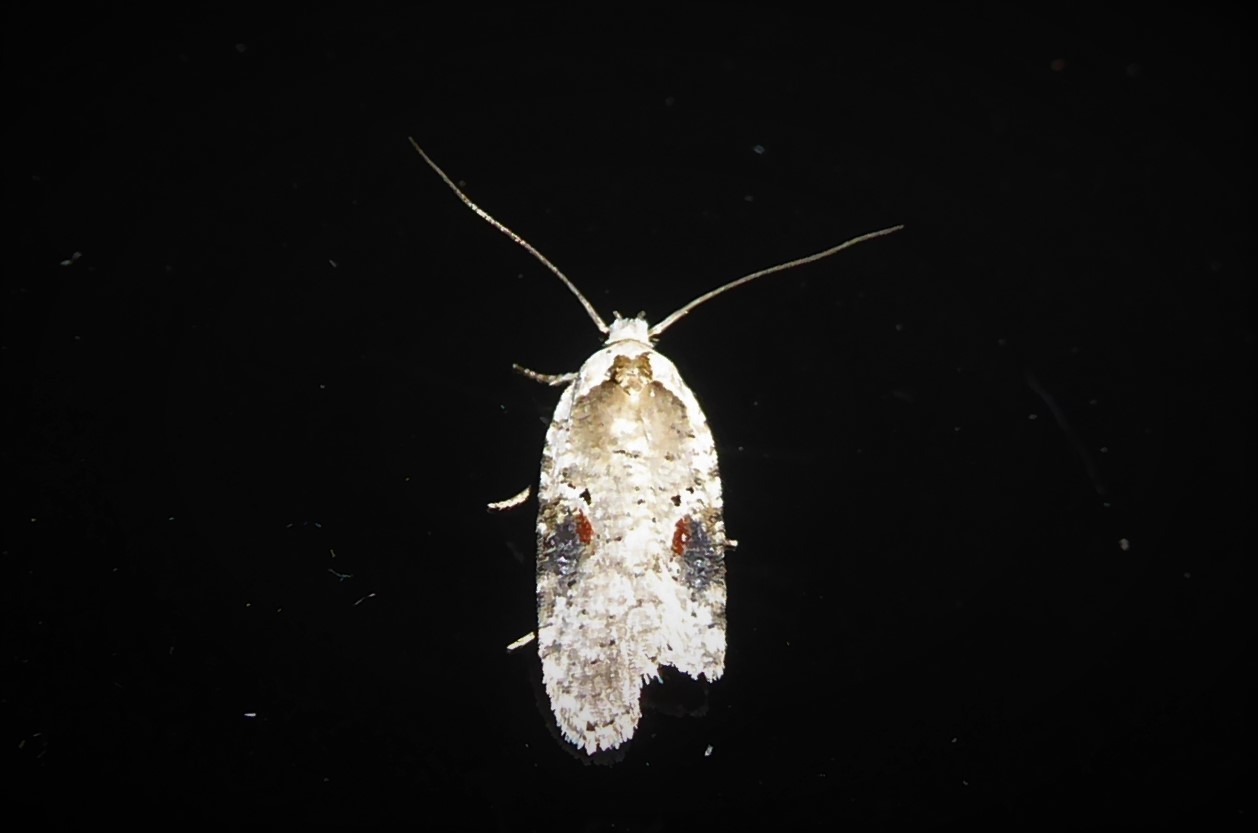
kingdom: Animalia
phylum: Arthropoda
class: Insecta
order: Lepidoptera
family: Depressariidae
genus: Agonopterix
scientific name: Agonopterix alstroemeriana
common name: Moth
